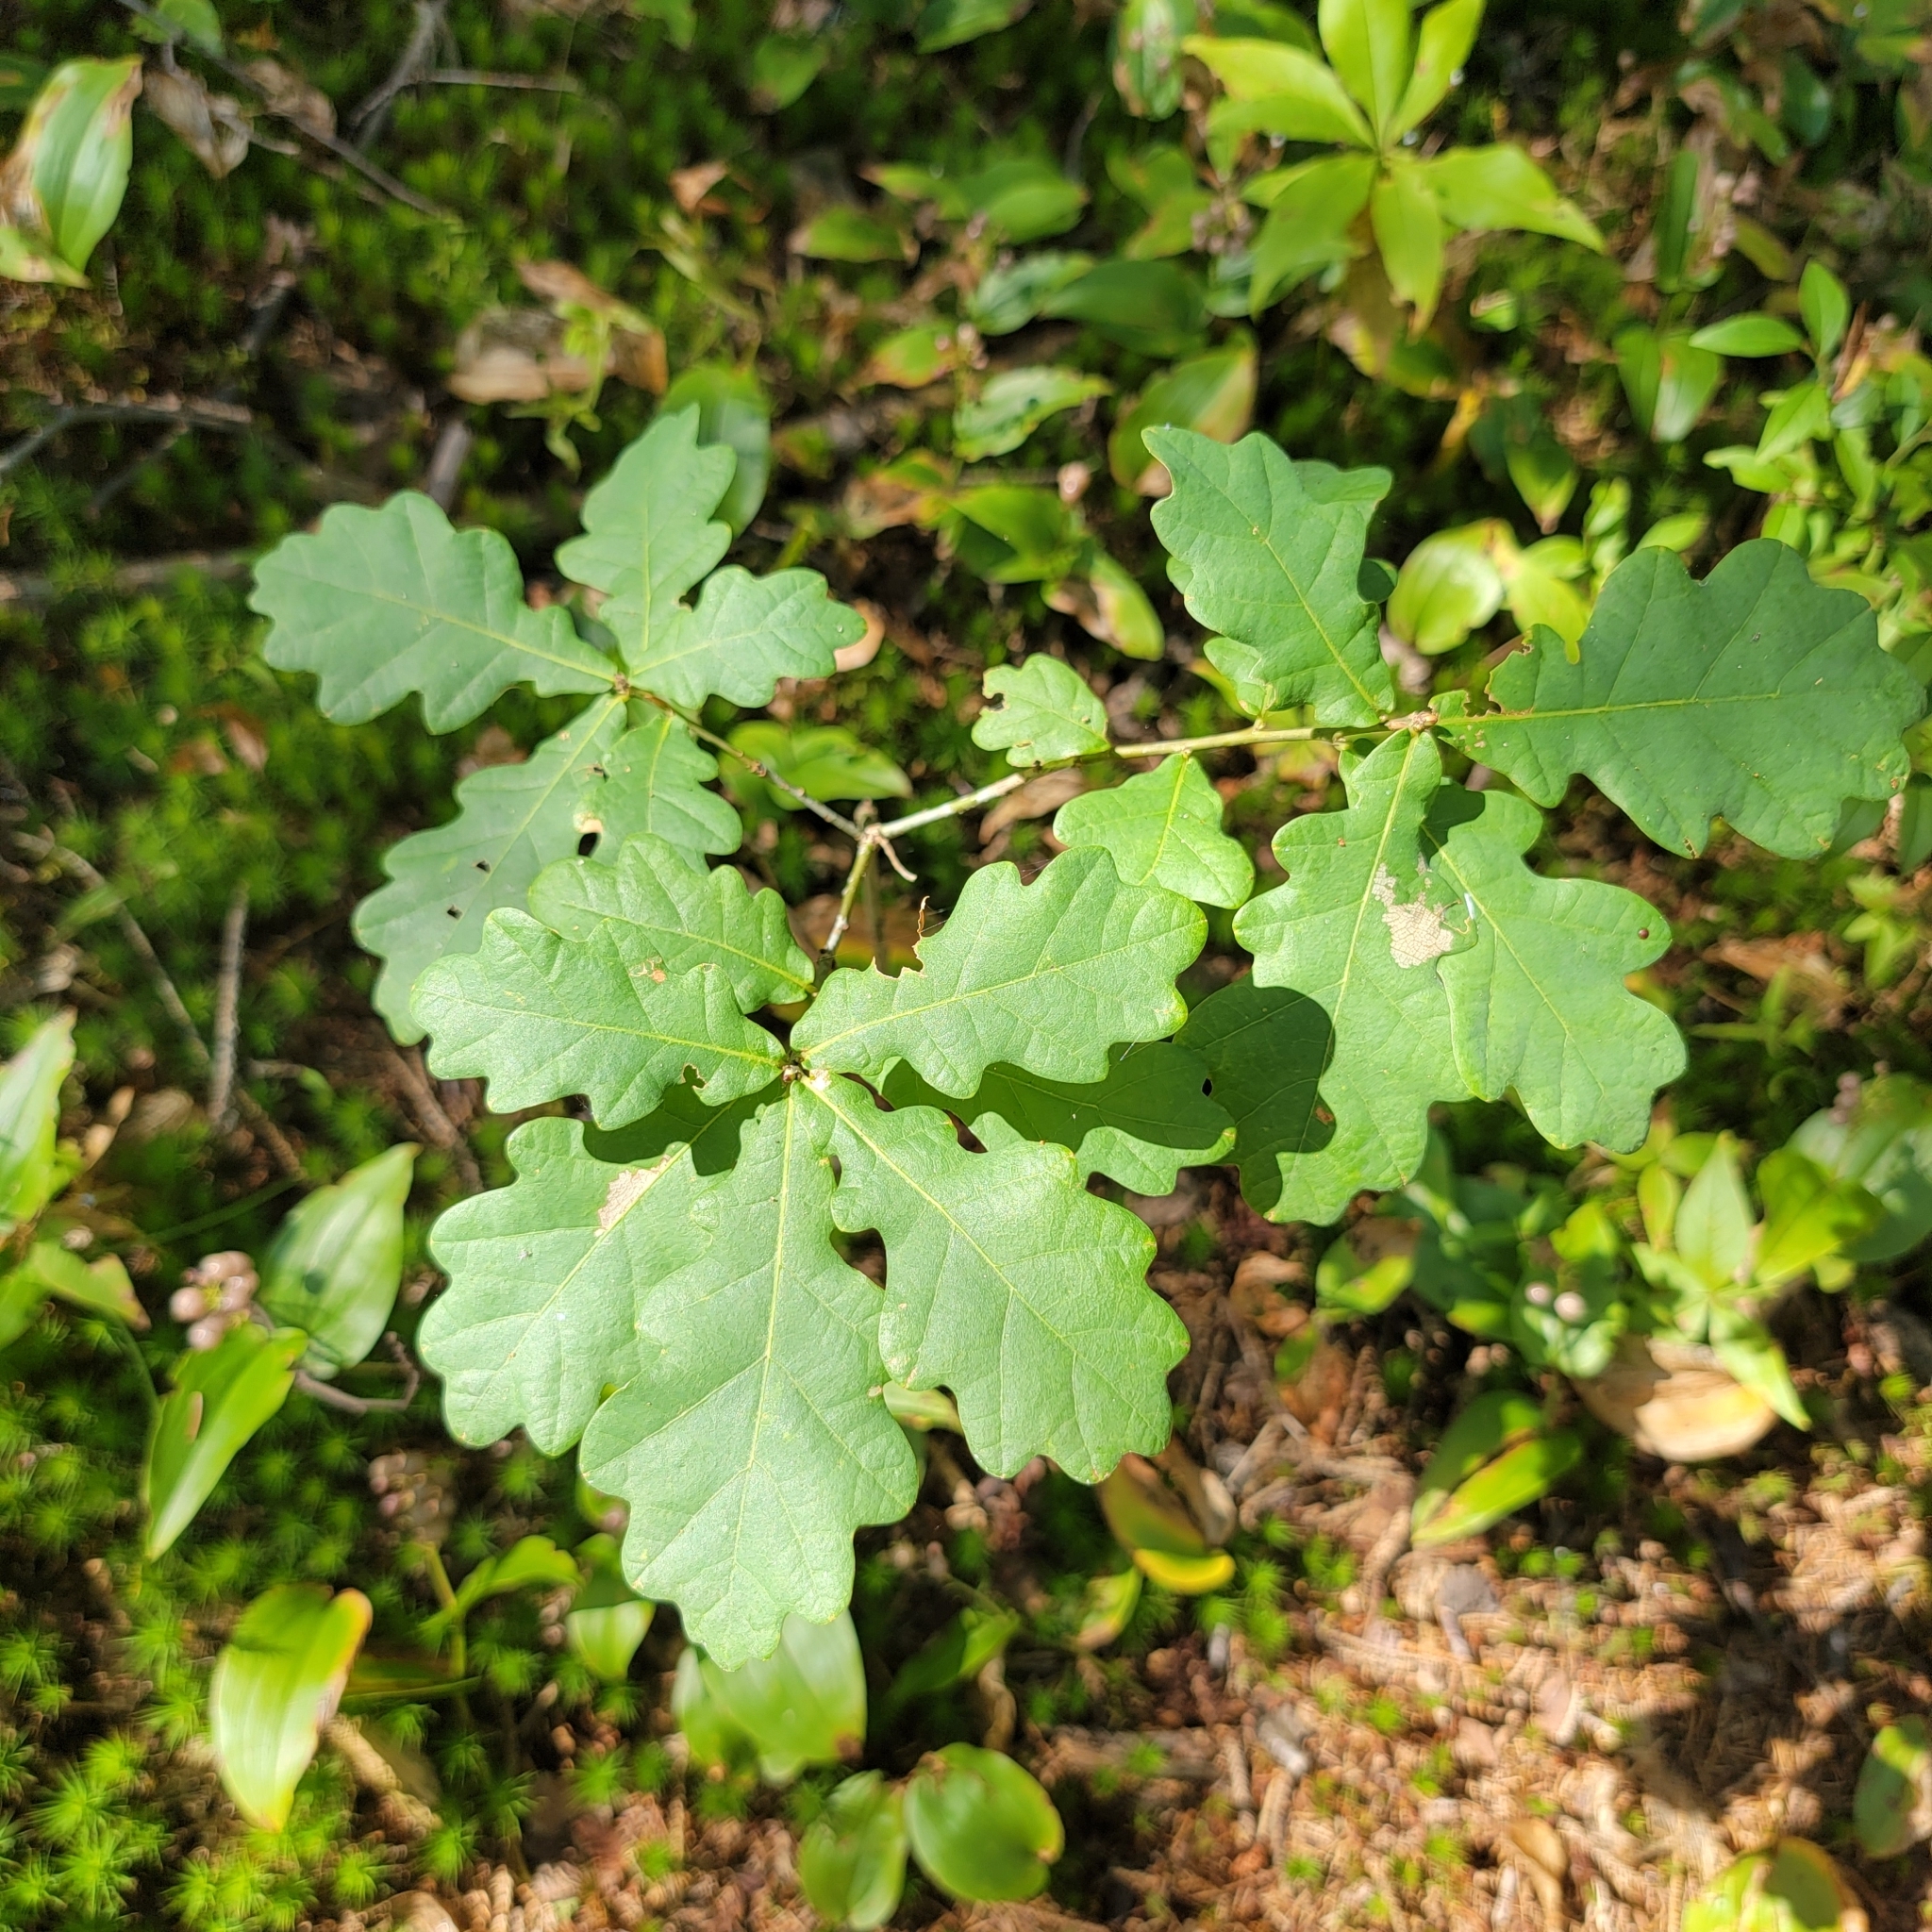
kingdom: Plantae
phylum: Tracheophyta
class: Magnoliopsida
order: Fagales
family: Fagaceae
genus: Quercus
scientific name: Quercus robur
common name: Pedunculate oak
